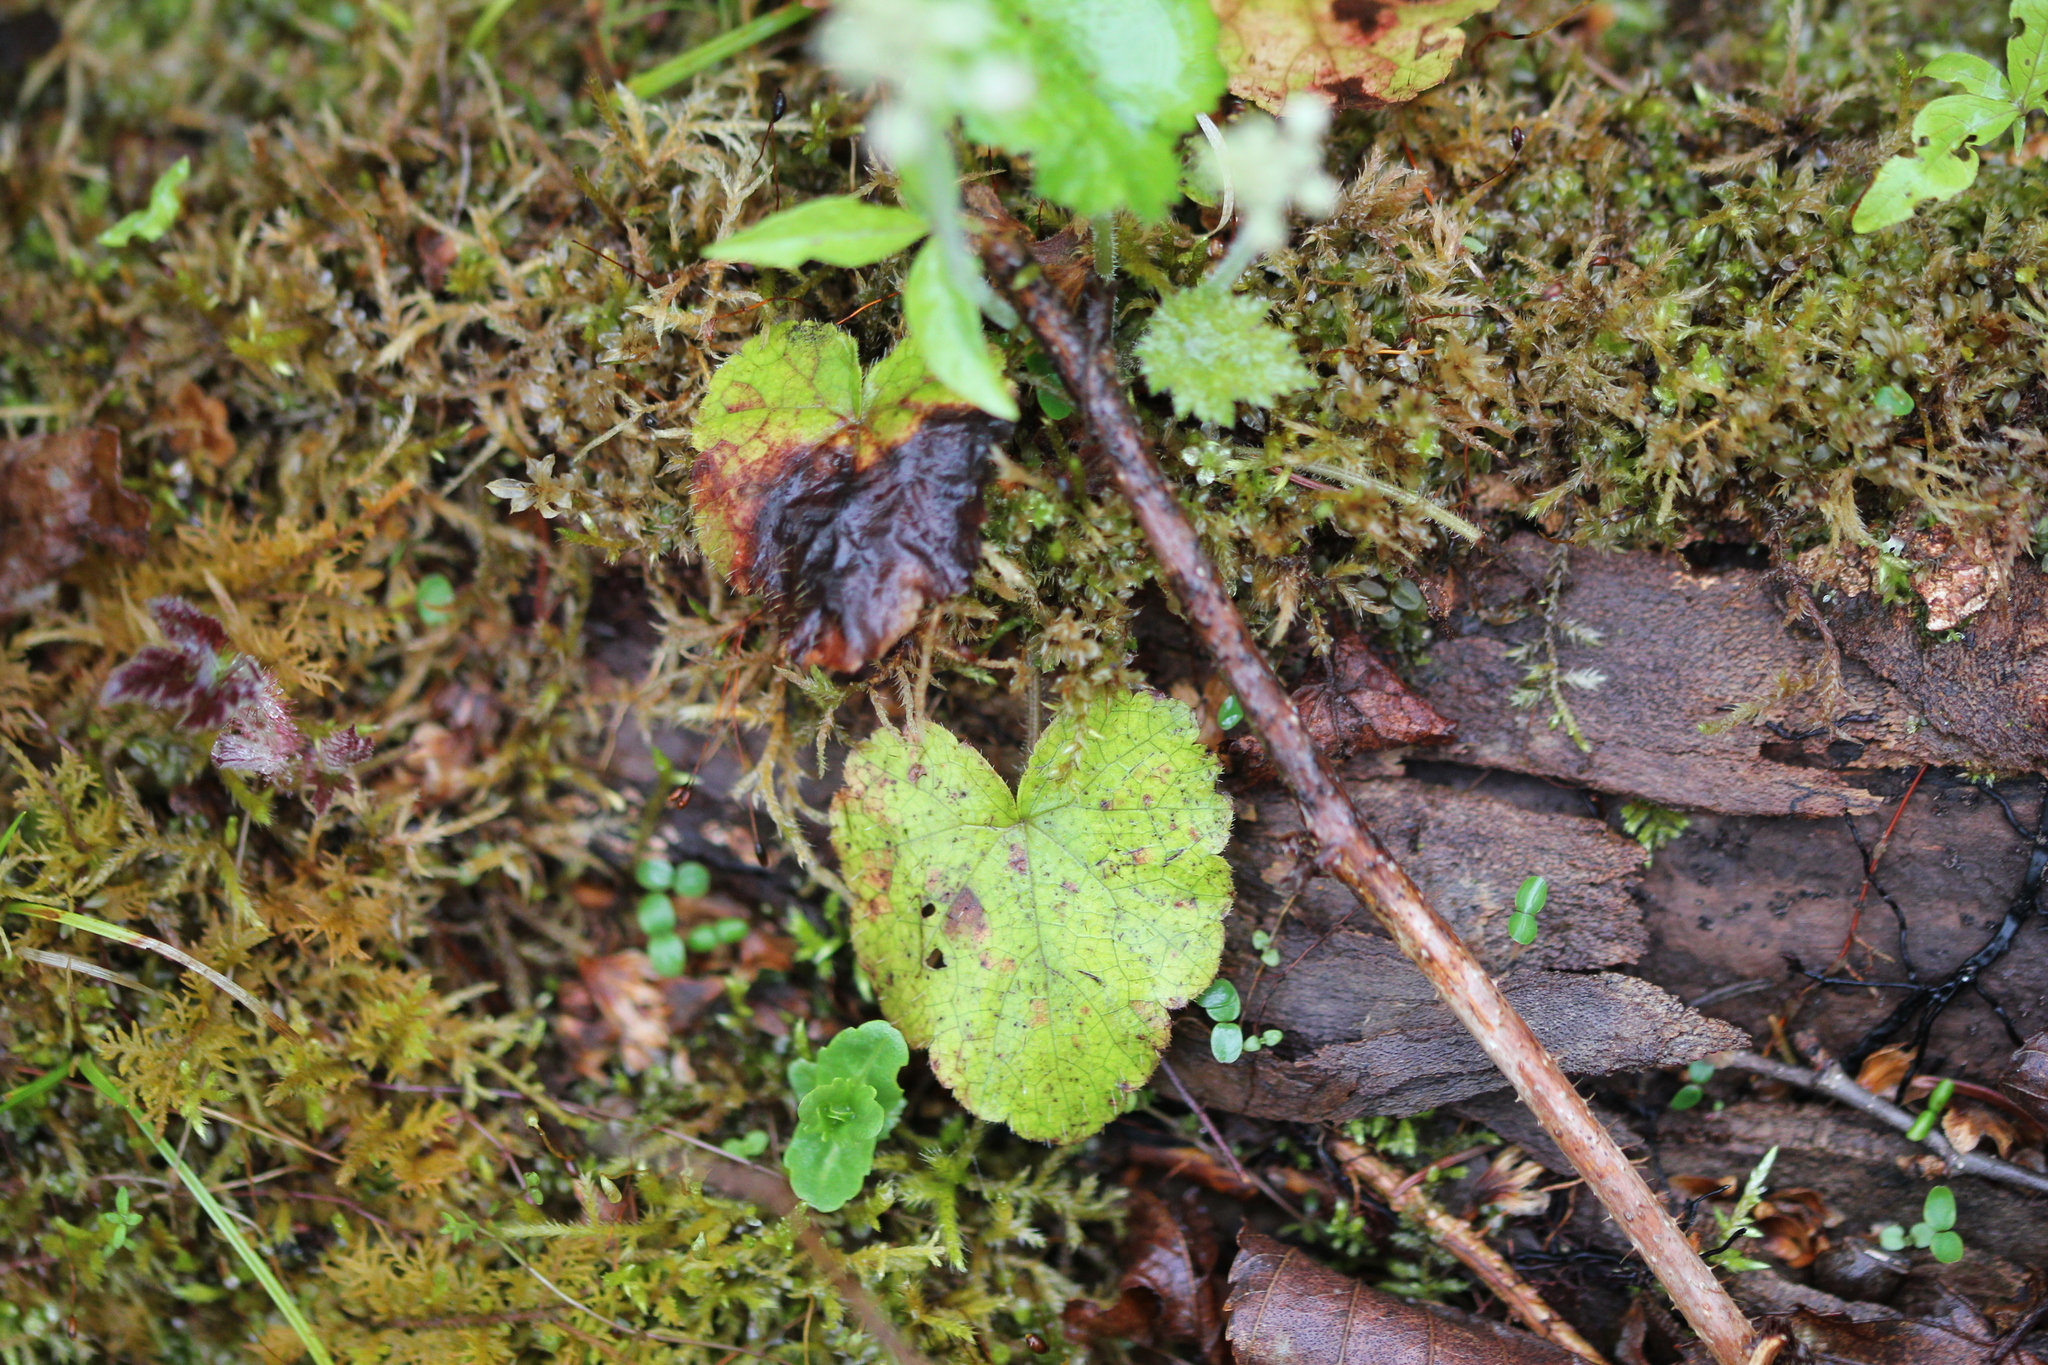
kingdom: Plantae
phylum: Tracheophyta
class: Magnoliopsida
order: Saxifragales
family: Saxifragaceae
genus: Tiarella
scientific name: Tiarella stolonifera
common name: Stoloniferous foamflower
